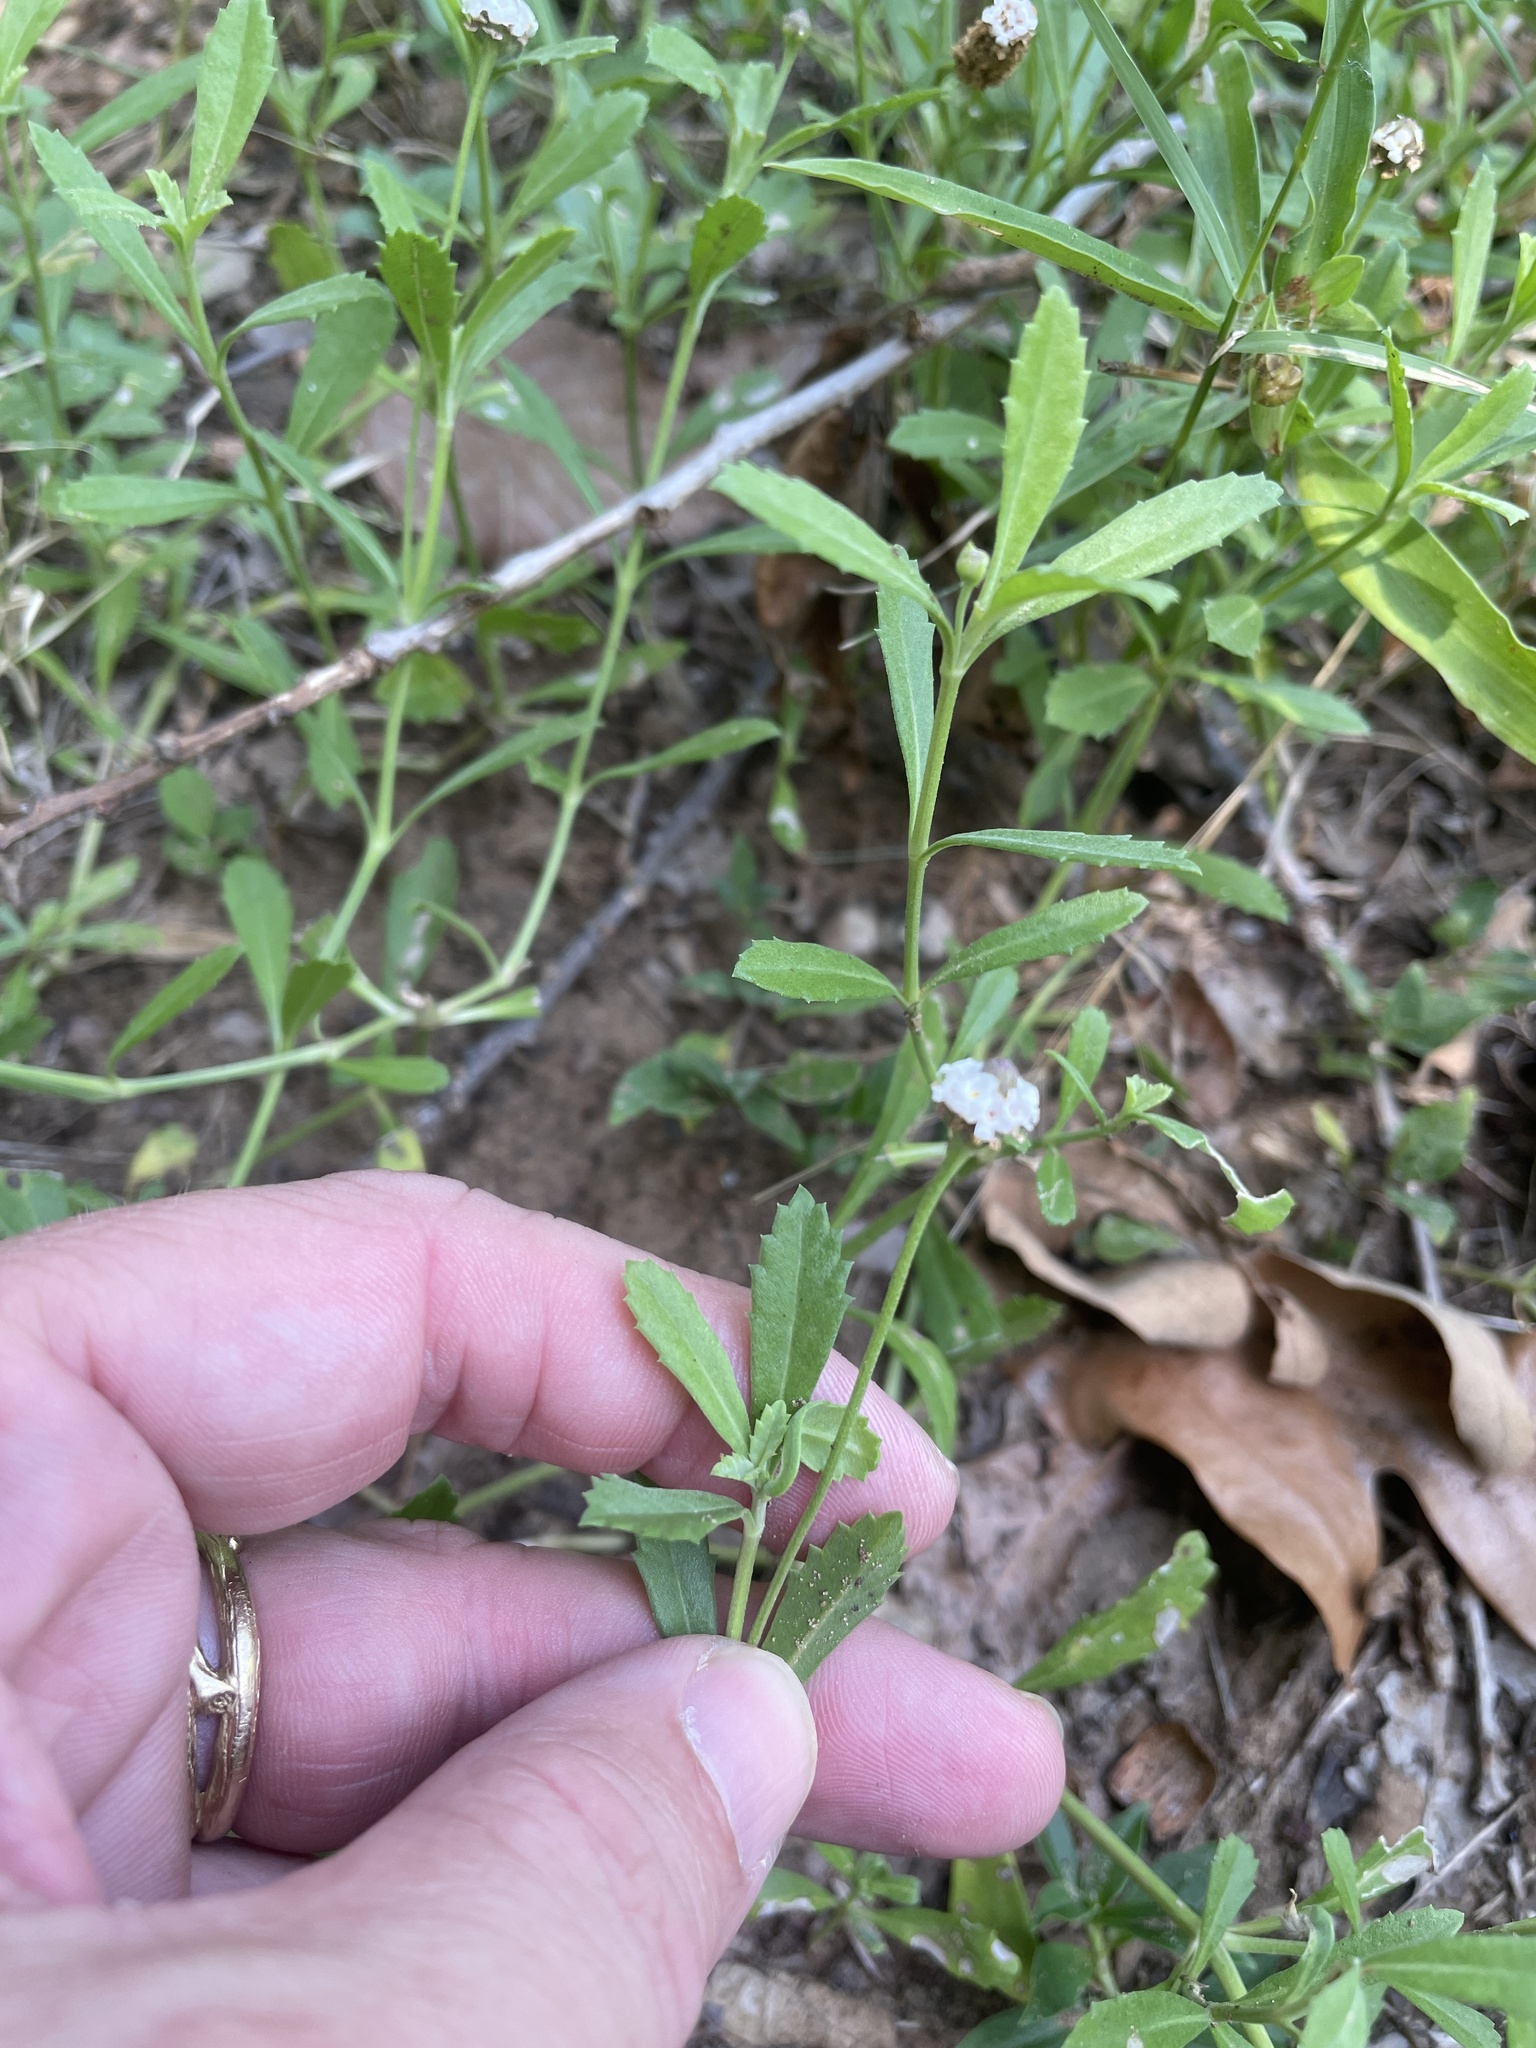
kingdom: Plantae
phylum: Tracheophyta
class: Magnoliopsida
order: Lamiales
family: Verbenaceae
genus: Phyla
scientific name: Phyla nodiflora
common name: Frogfruit
